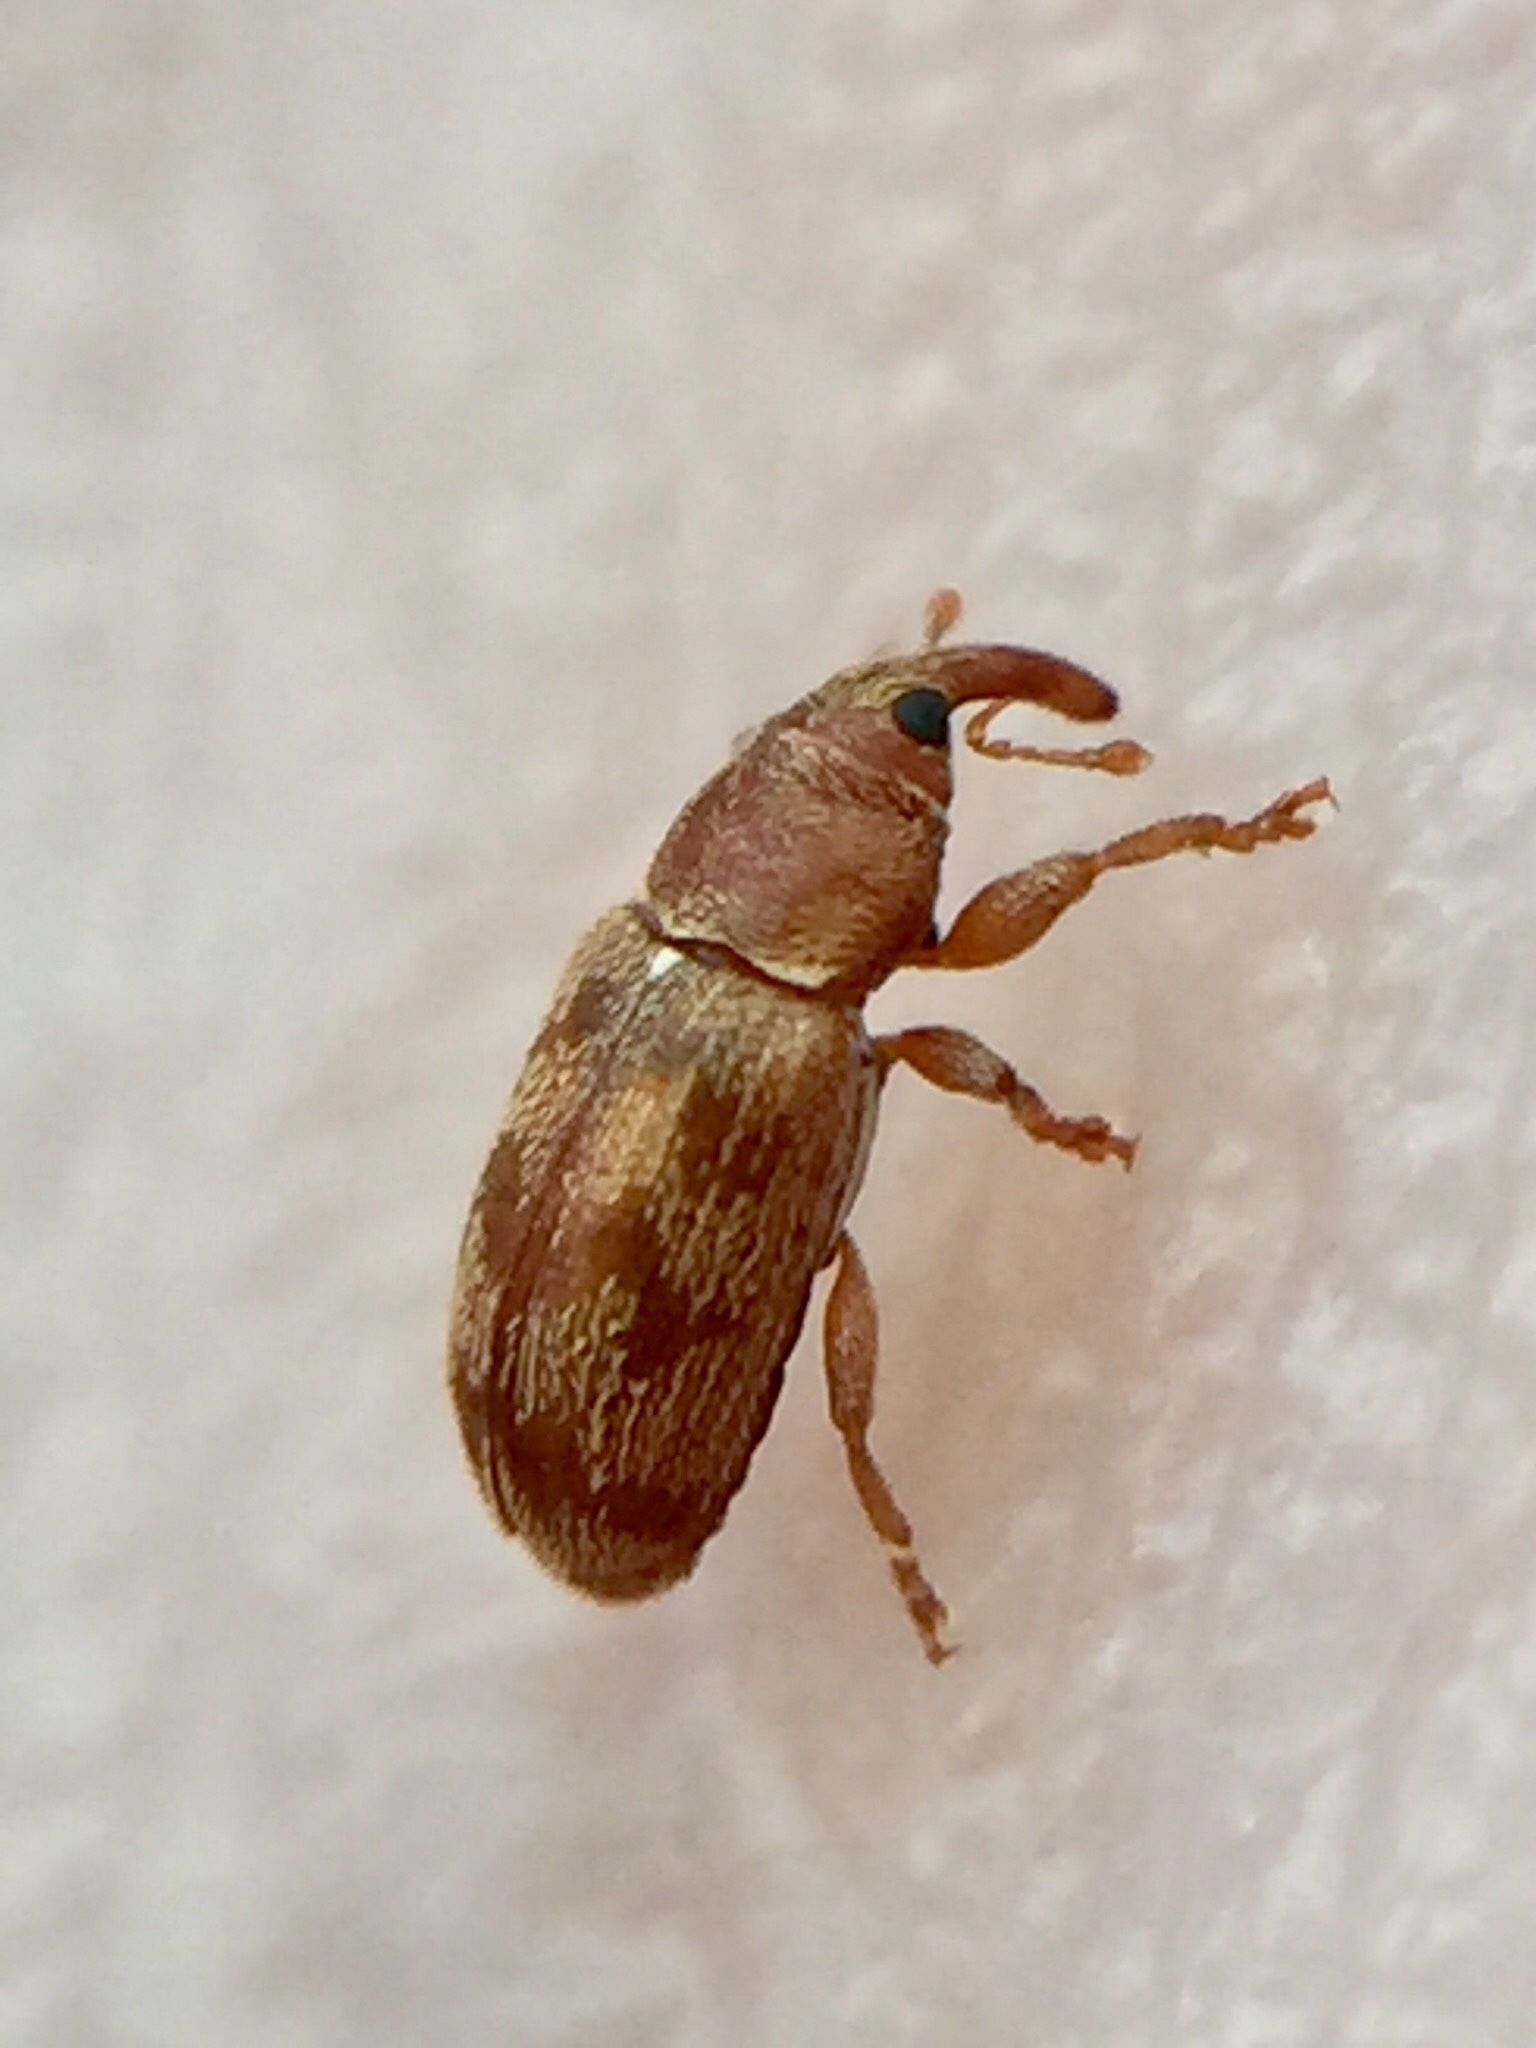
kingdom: Animalia
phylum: Arthropoda
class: Insecta
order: Coleoptera
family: Curculionidae
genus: Epamoebus
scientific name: Epamoebus ziczac
